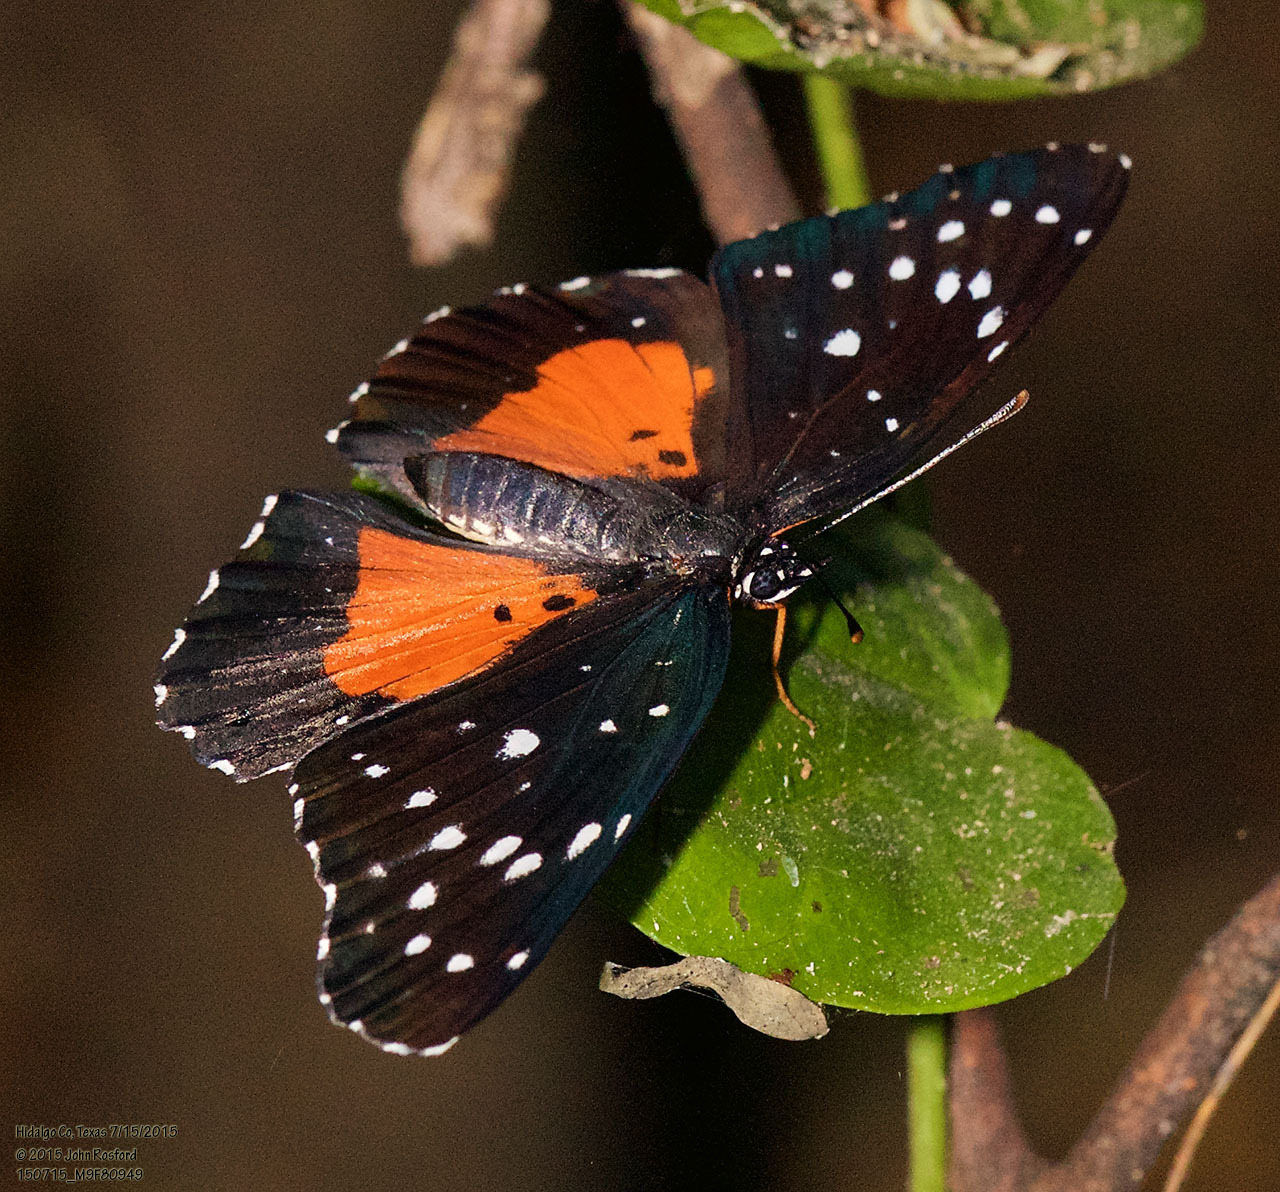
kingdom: Animalia
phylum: Arthropoda
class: Insecta
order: Lepidoptera
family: Nymphalidae
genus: Chlosyne
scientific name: Chlosyne janais
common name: Crimson patch
